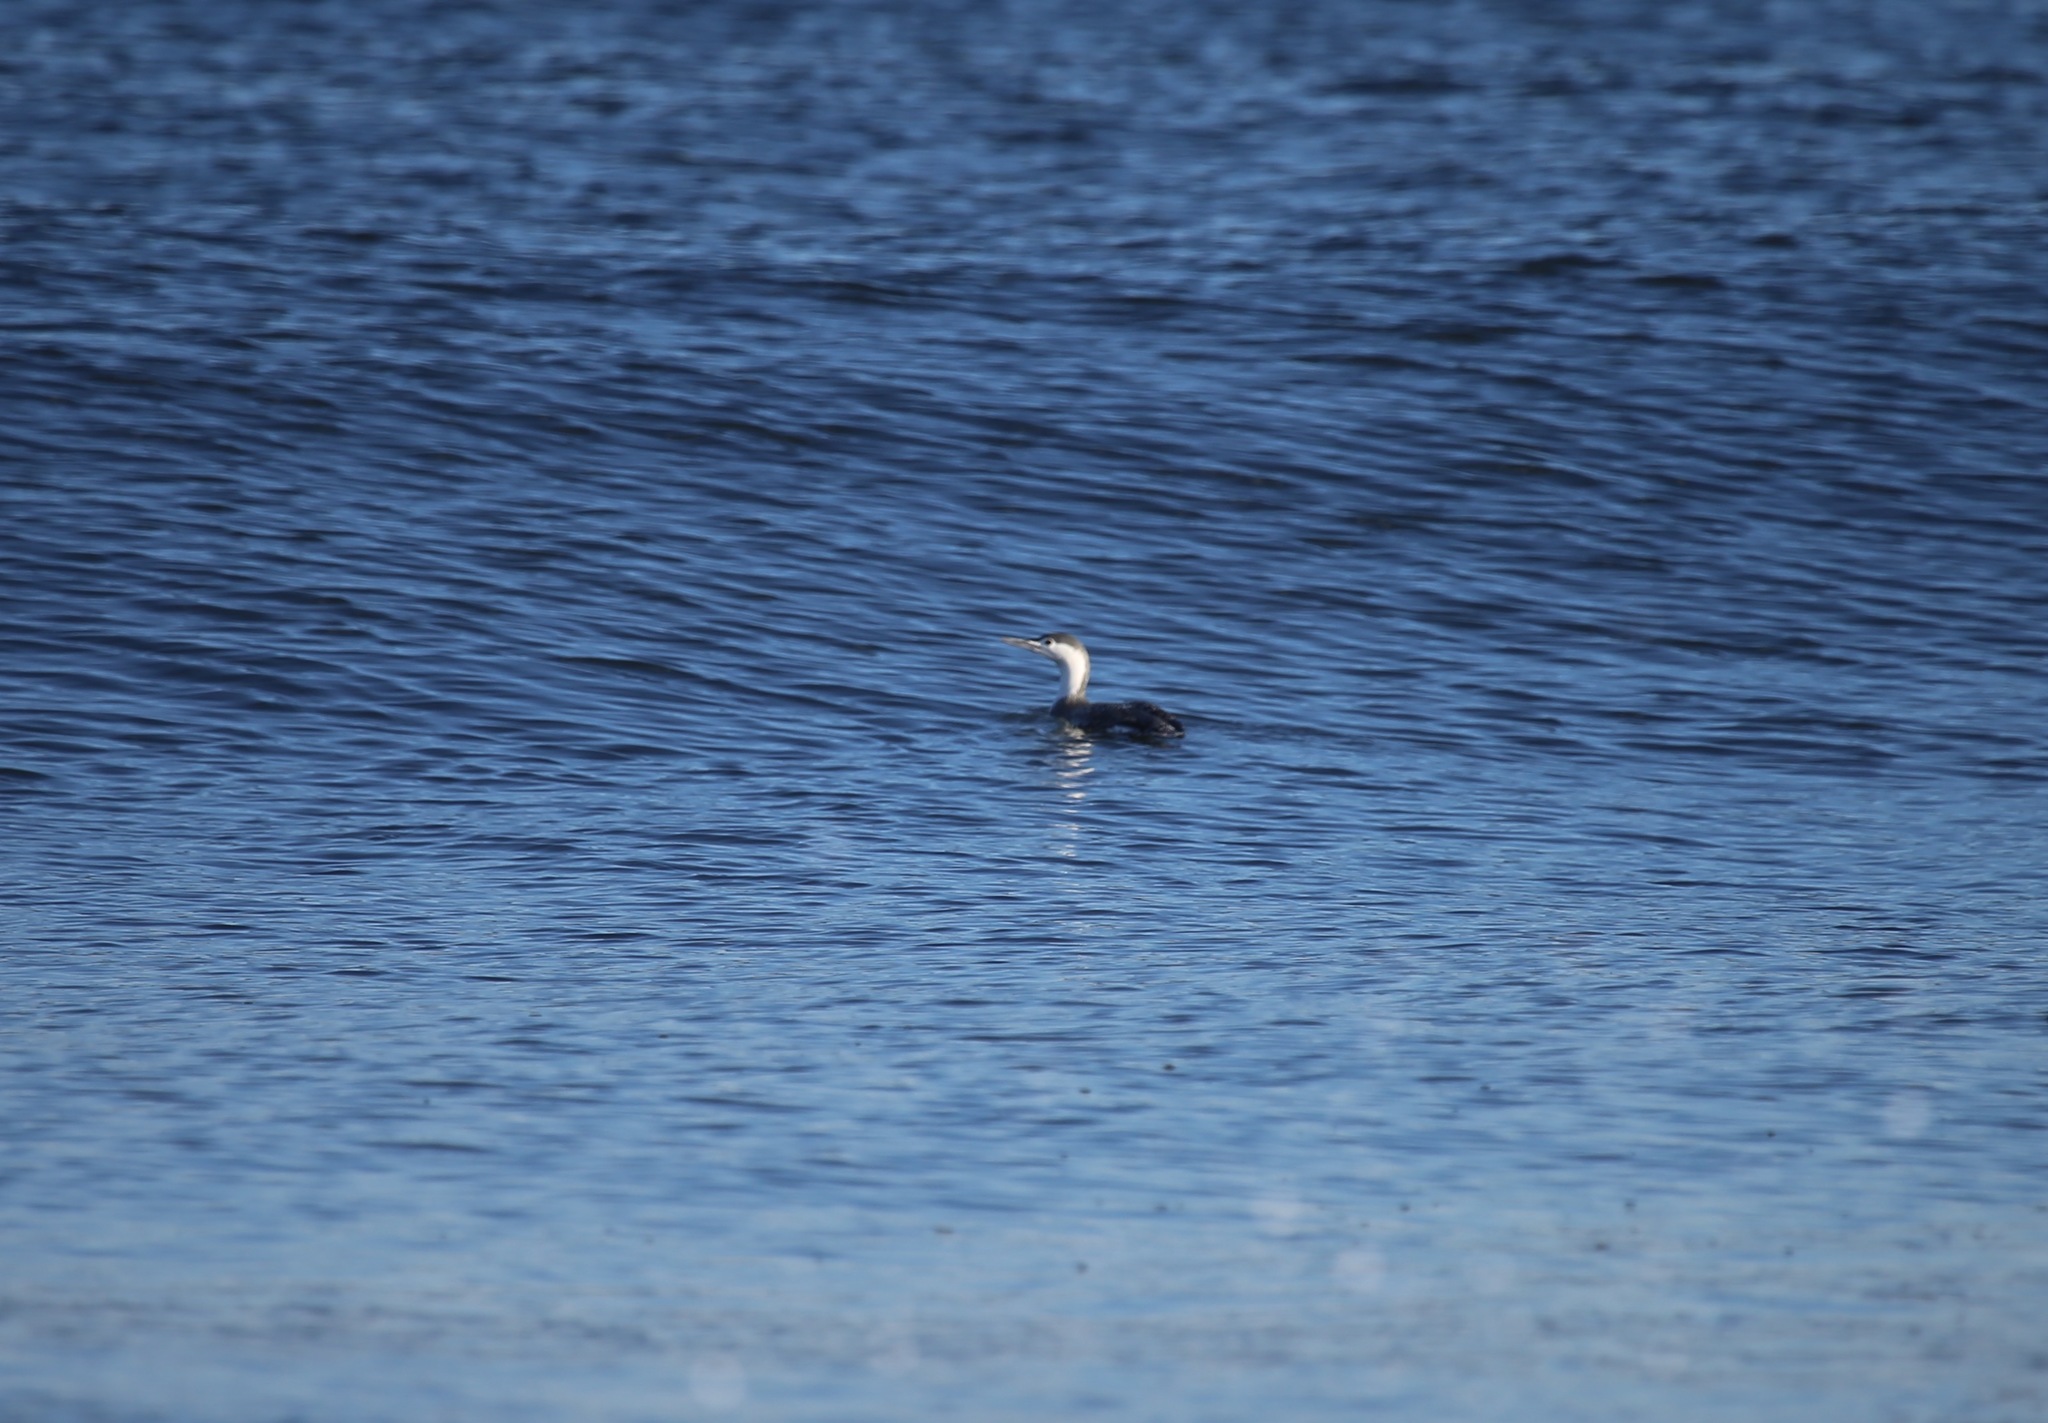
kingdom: Animalia
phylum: Chordata
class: Aves
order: Gaviiformes
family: Gaviidae
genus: Gavia
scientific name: Gavia stellata
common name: Red-throated loon
